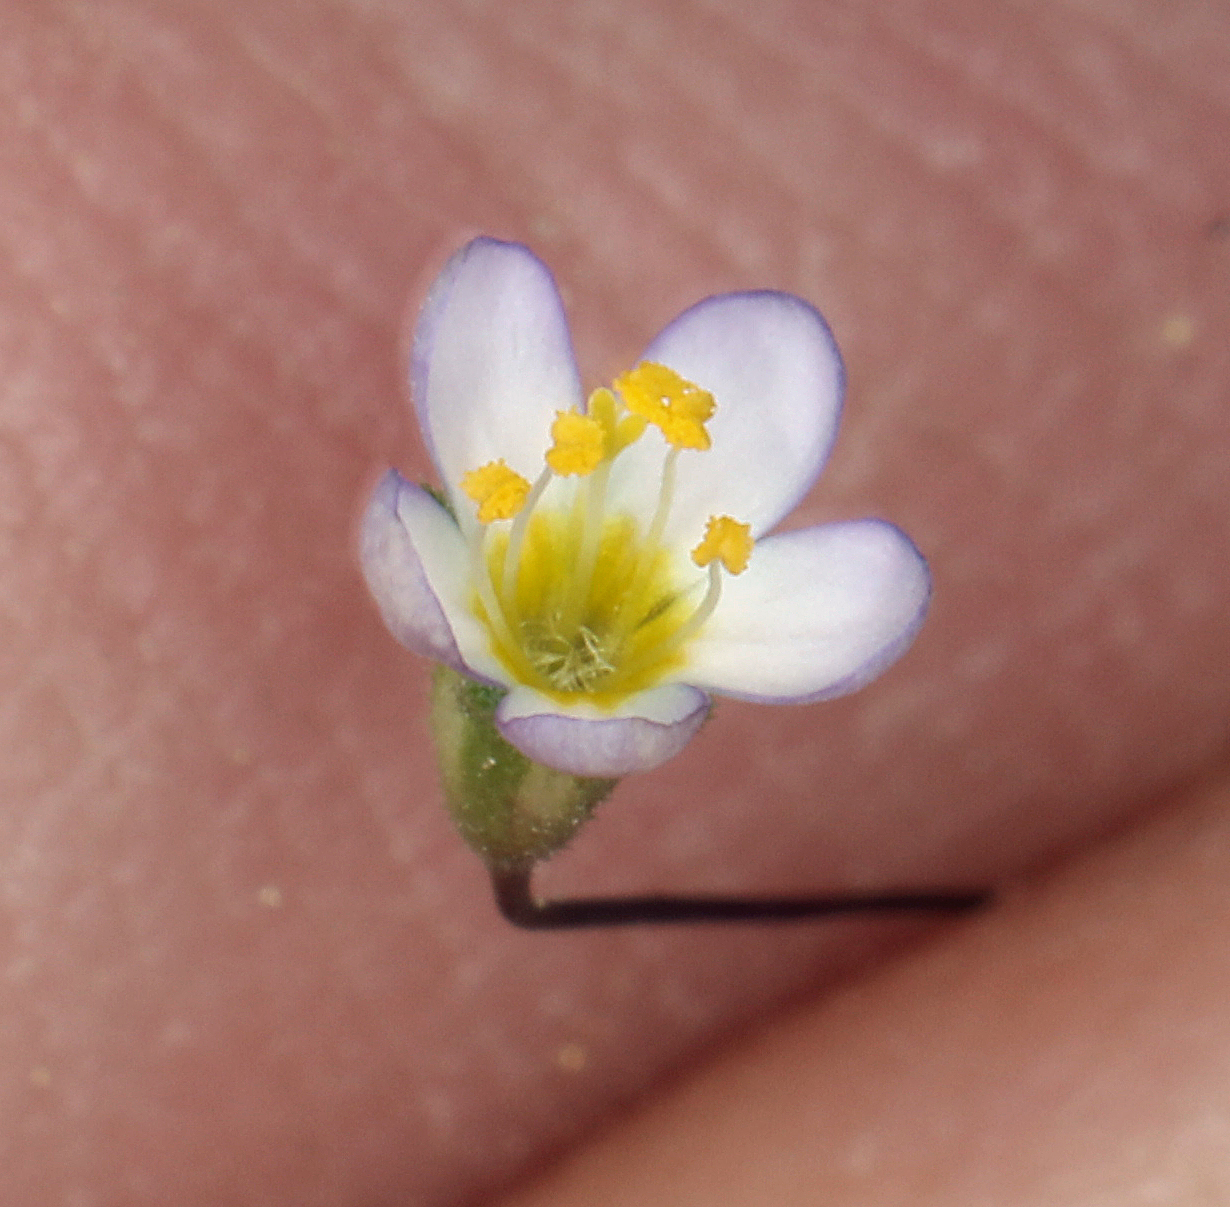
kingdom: Plantae
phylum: Tracheophyta
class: Magnoliopsida
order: Ericales
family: Polemoniaceae
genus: Leptosiphon
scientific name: Leptosiphon septentrionalis
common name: Northern linanthus
